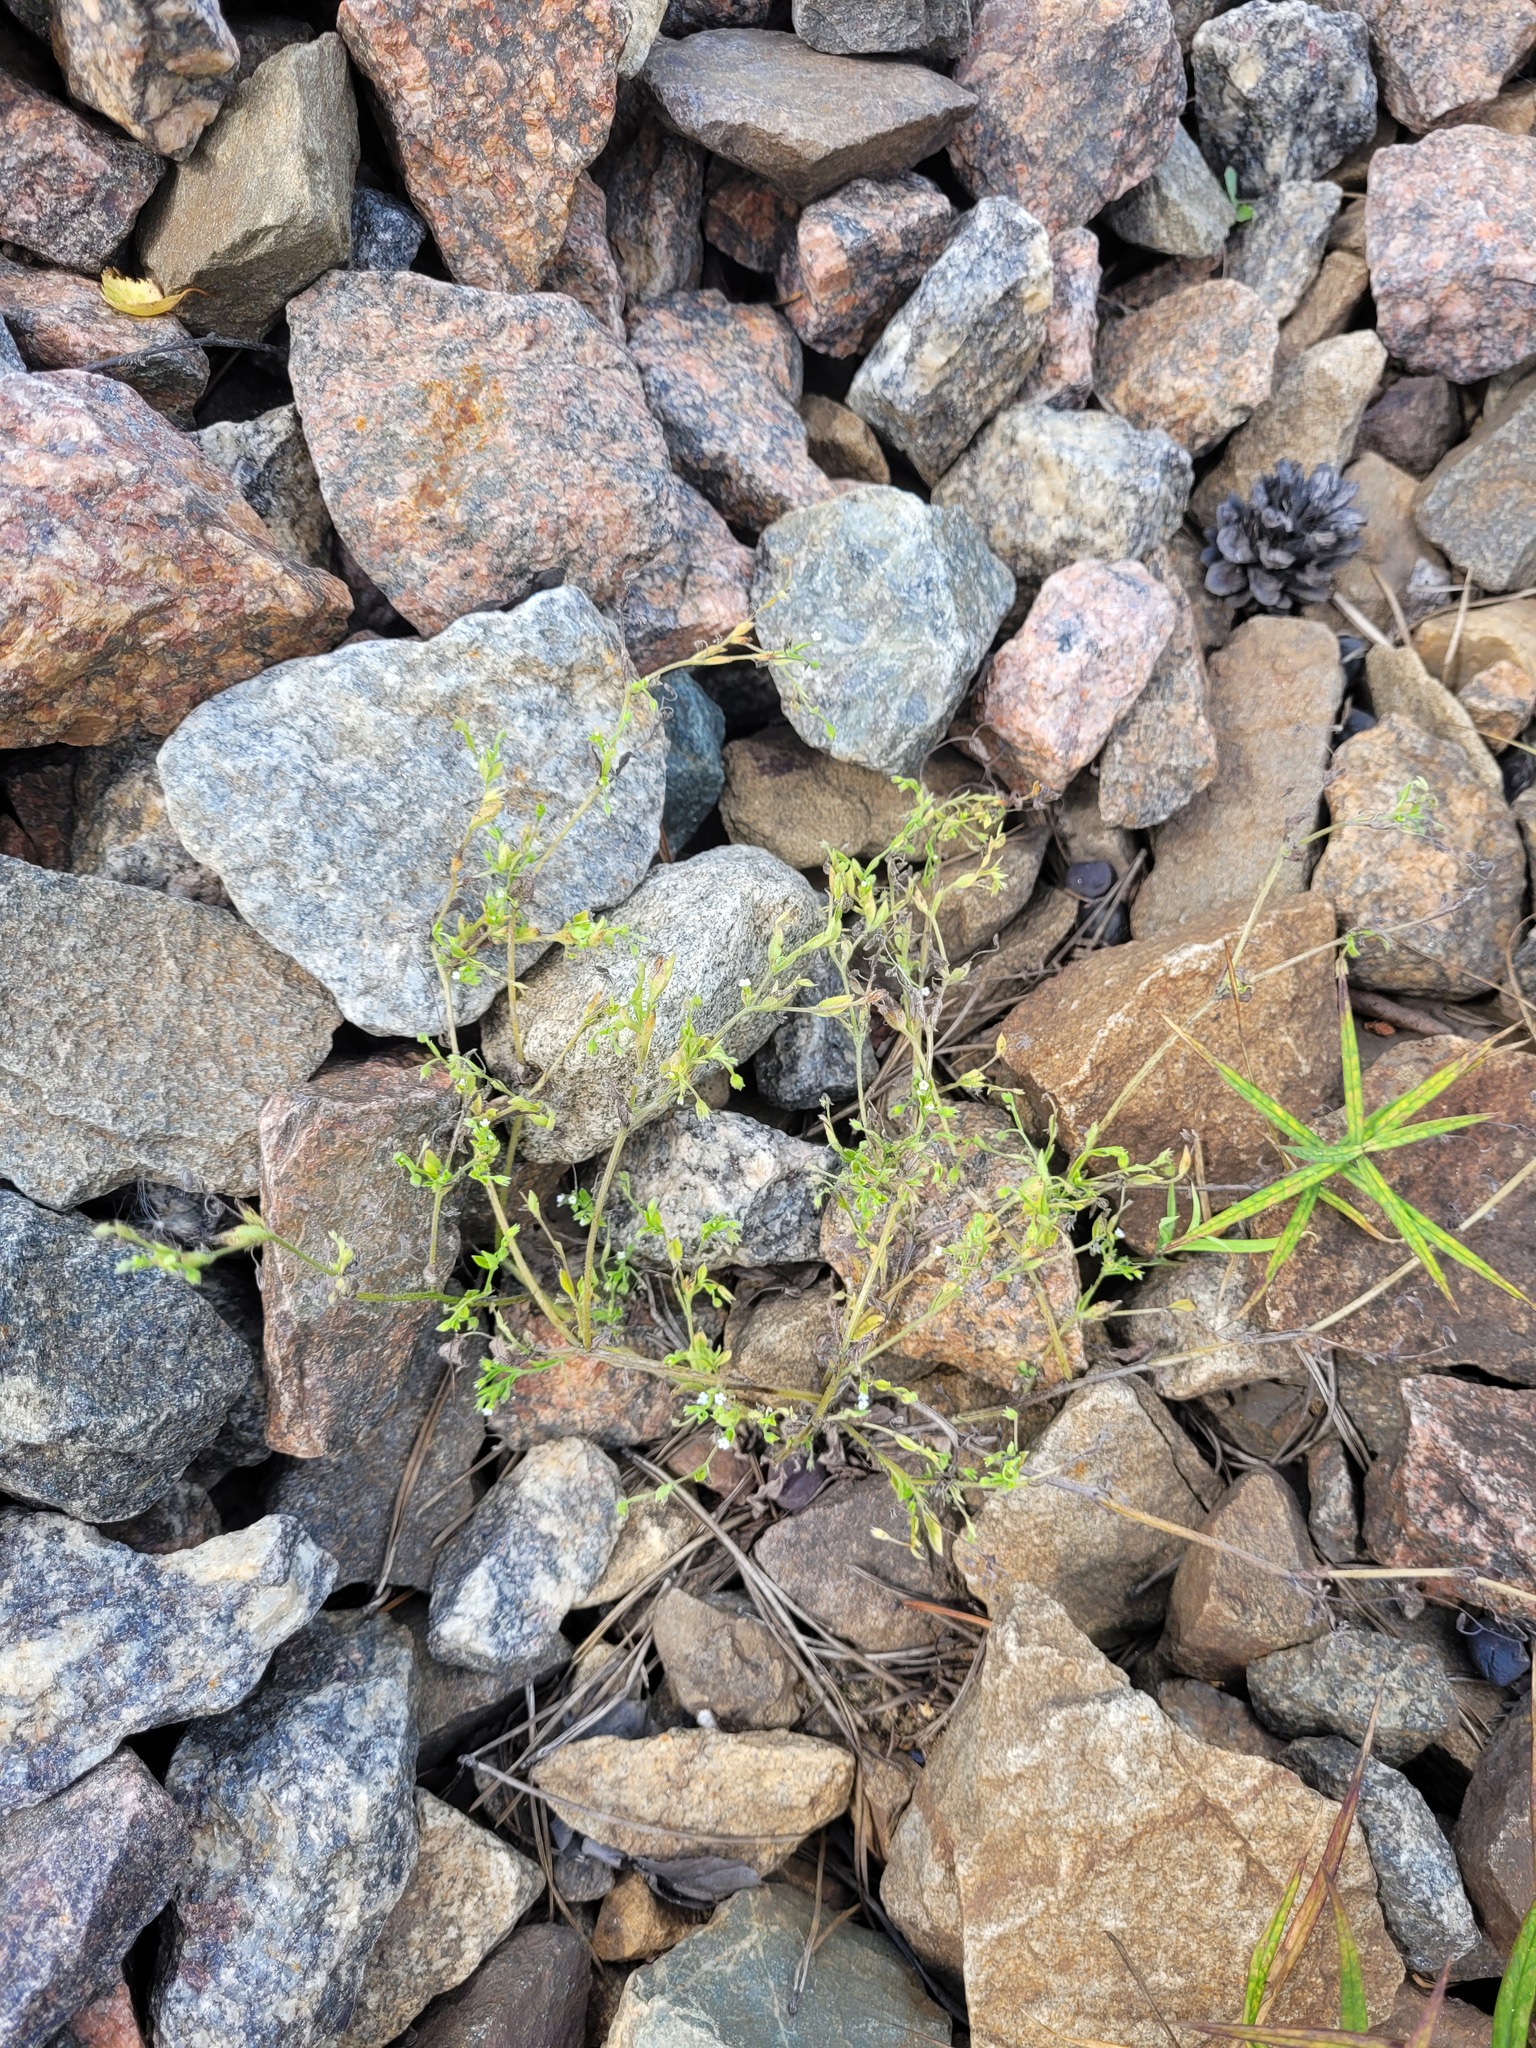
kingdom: Plantae
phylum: Tracheophyta
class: Magnoliopsida
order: Boraginales
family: Boraginaceae
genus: Myosotis
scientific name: Myosotis sparsiflora
